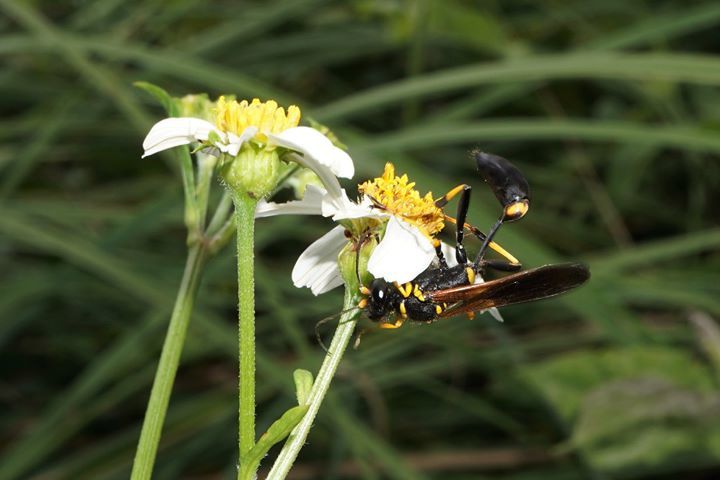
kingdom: Animalia
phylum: Arthropoda
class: Insecta
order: Hymenoptera
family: Sphecidae
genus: Sceliphron
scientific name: Sceliphron caementarium
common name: Mud dauber
